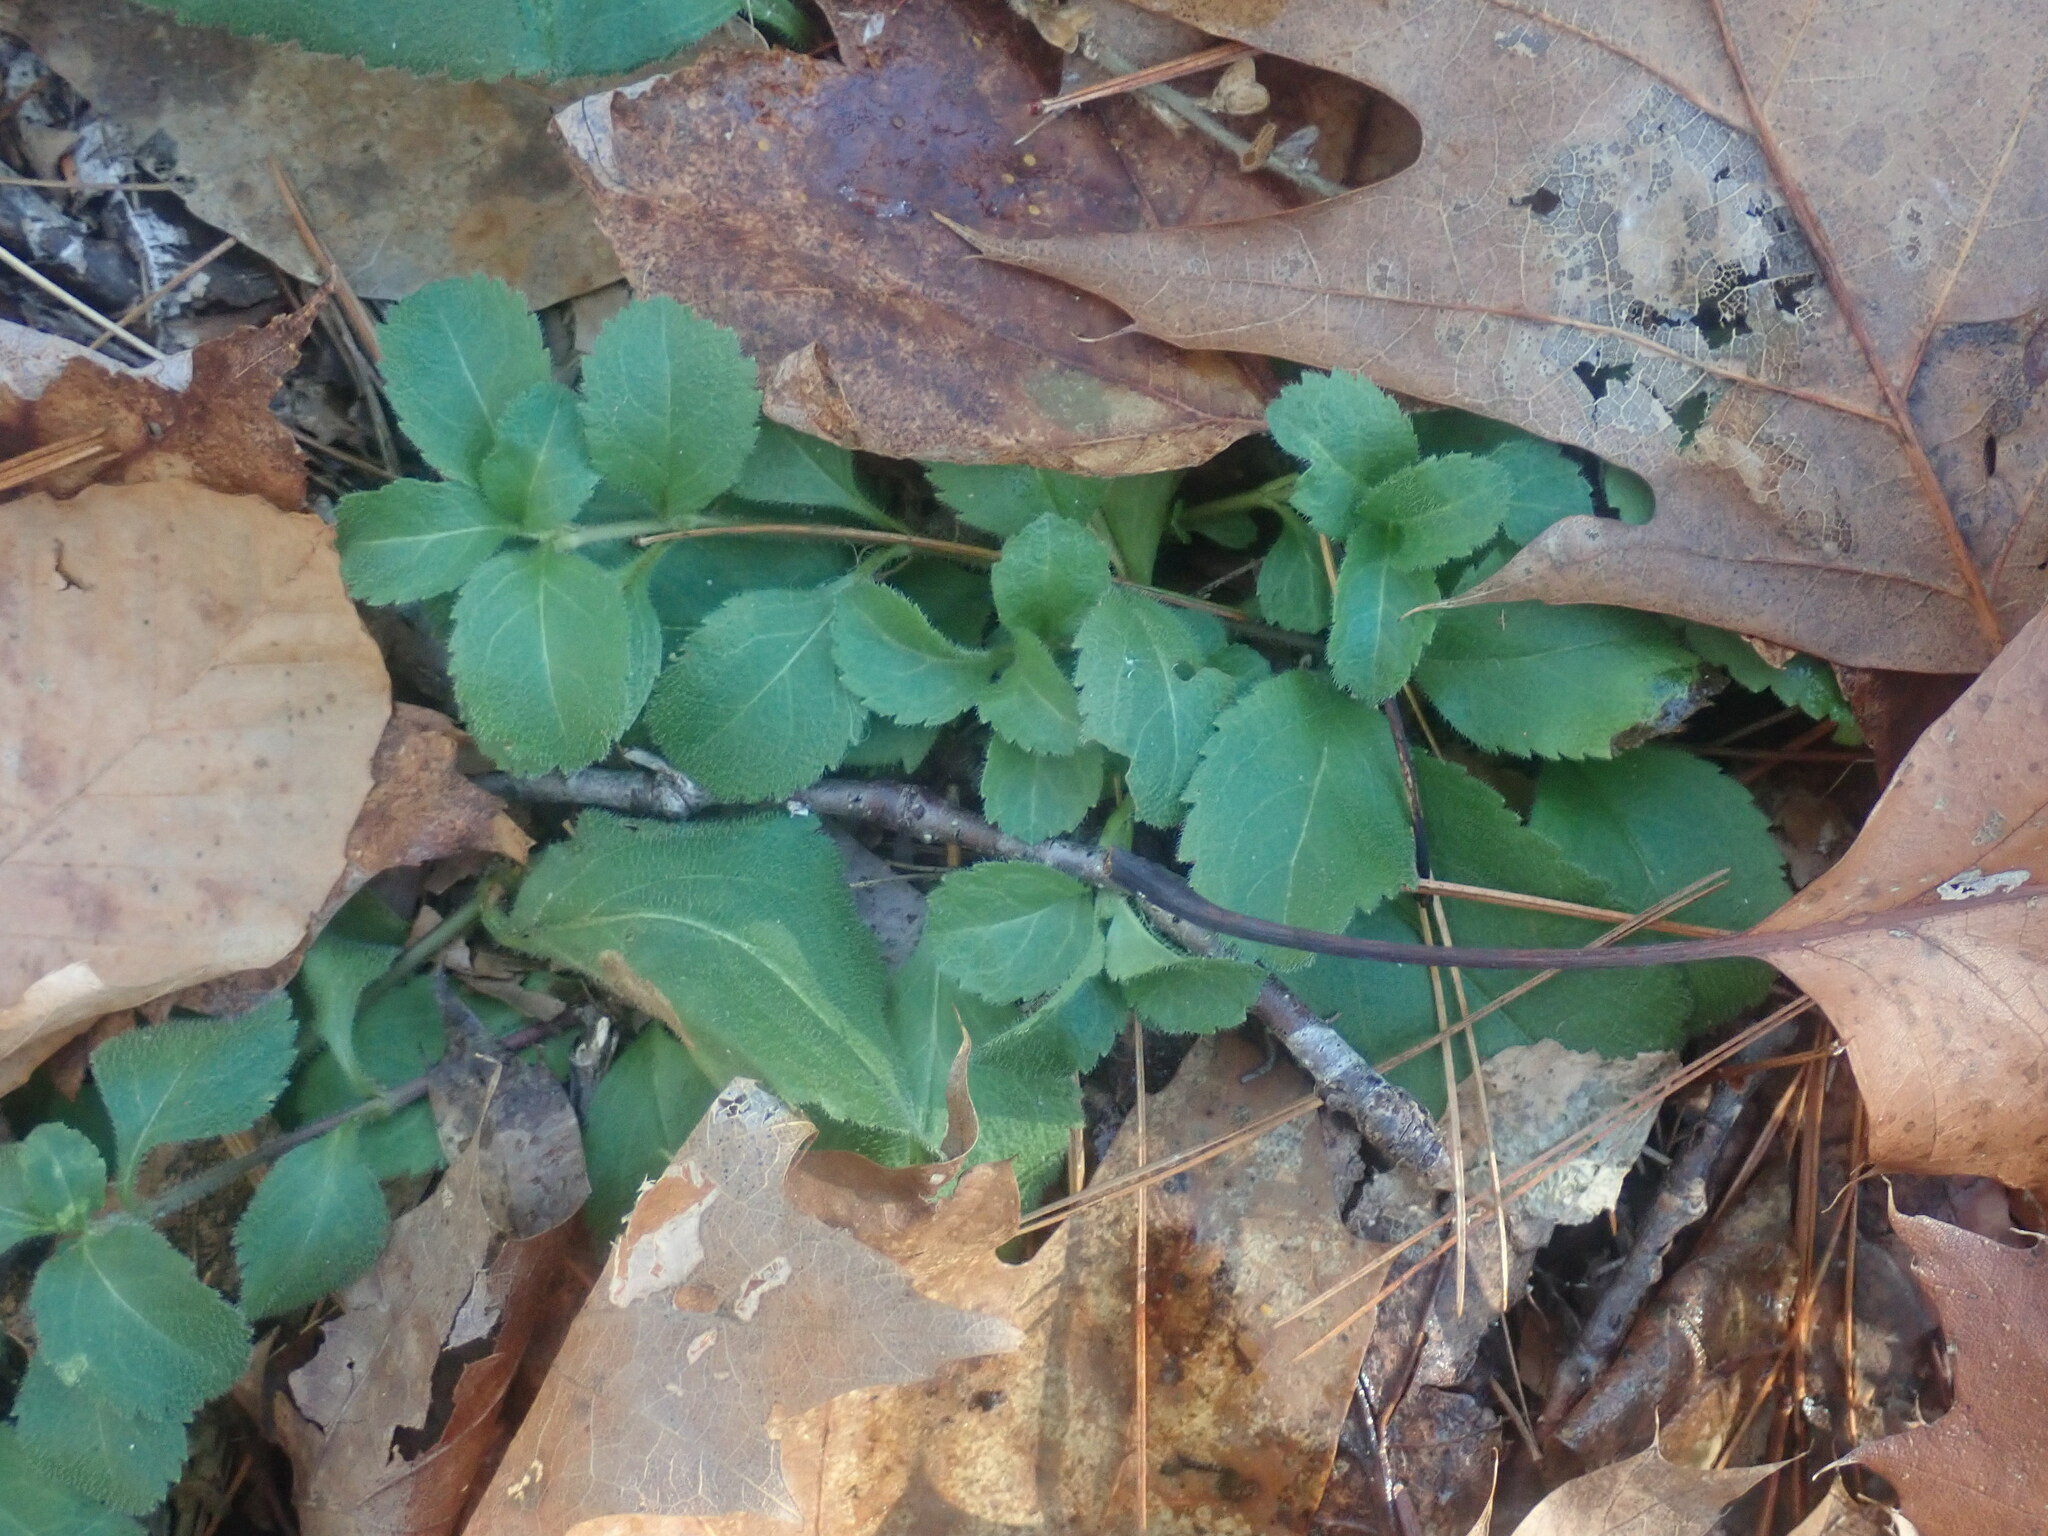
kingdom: Plantae
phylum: Tracheophyta
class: Magnoliopsida
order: Lamiales
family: Plantaginaceae
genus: Veronica
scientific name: Veronica officinalis
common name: Common speedwell
